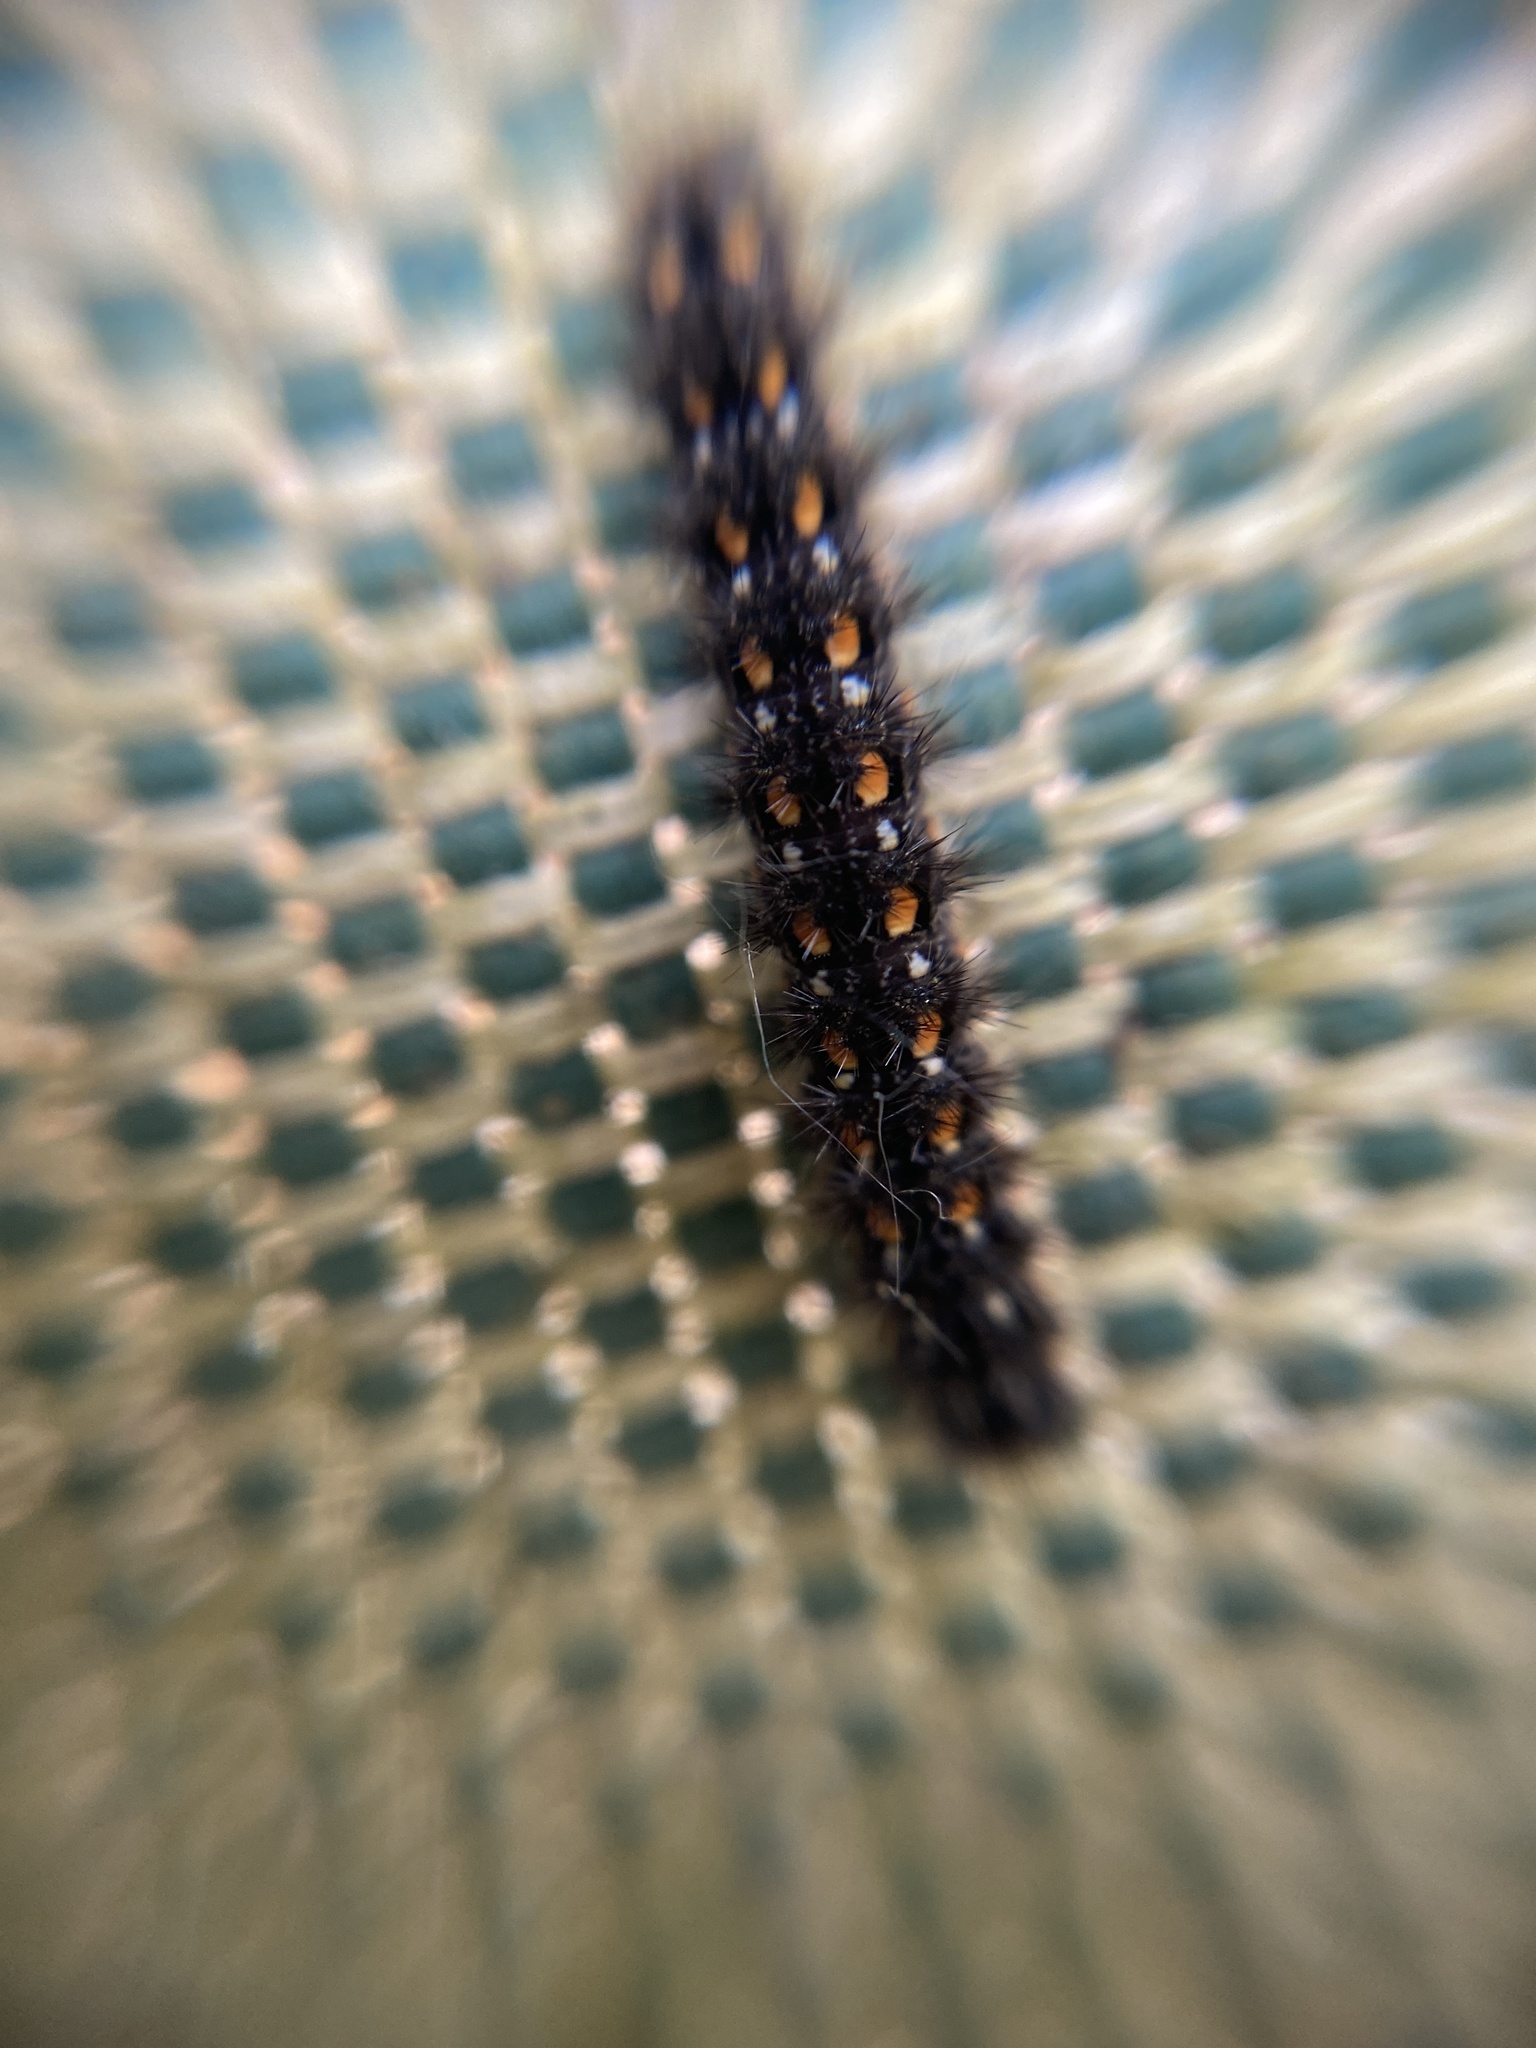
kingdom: Animalia
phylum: Arthropoda
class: Insecta
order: Lepidoptera
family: Erebidae
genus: Manulea
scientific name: Manulea complana
